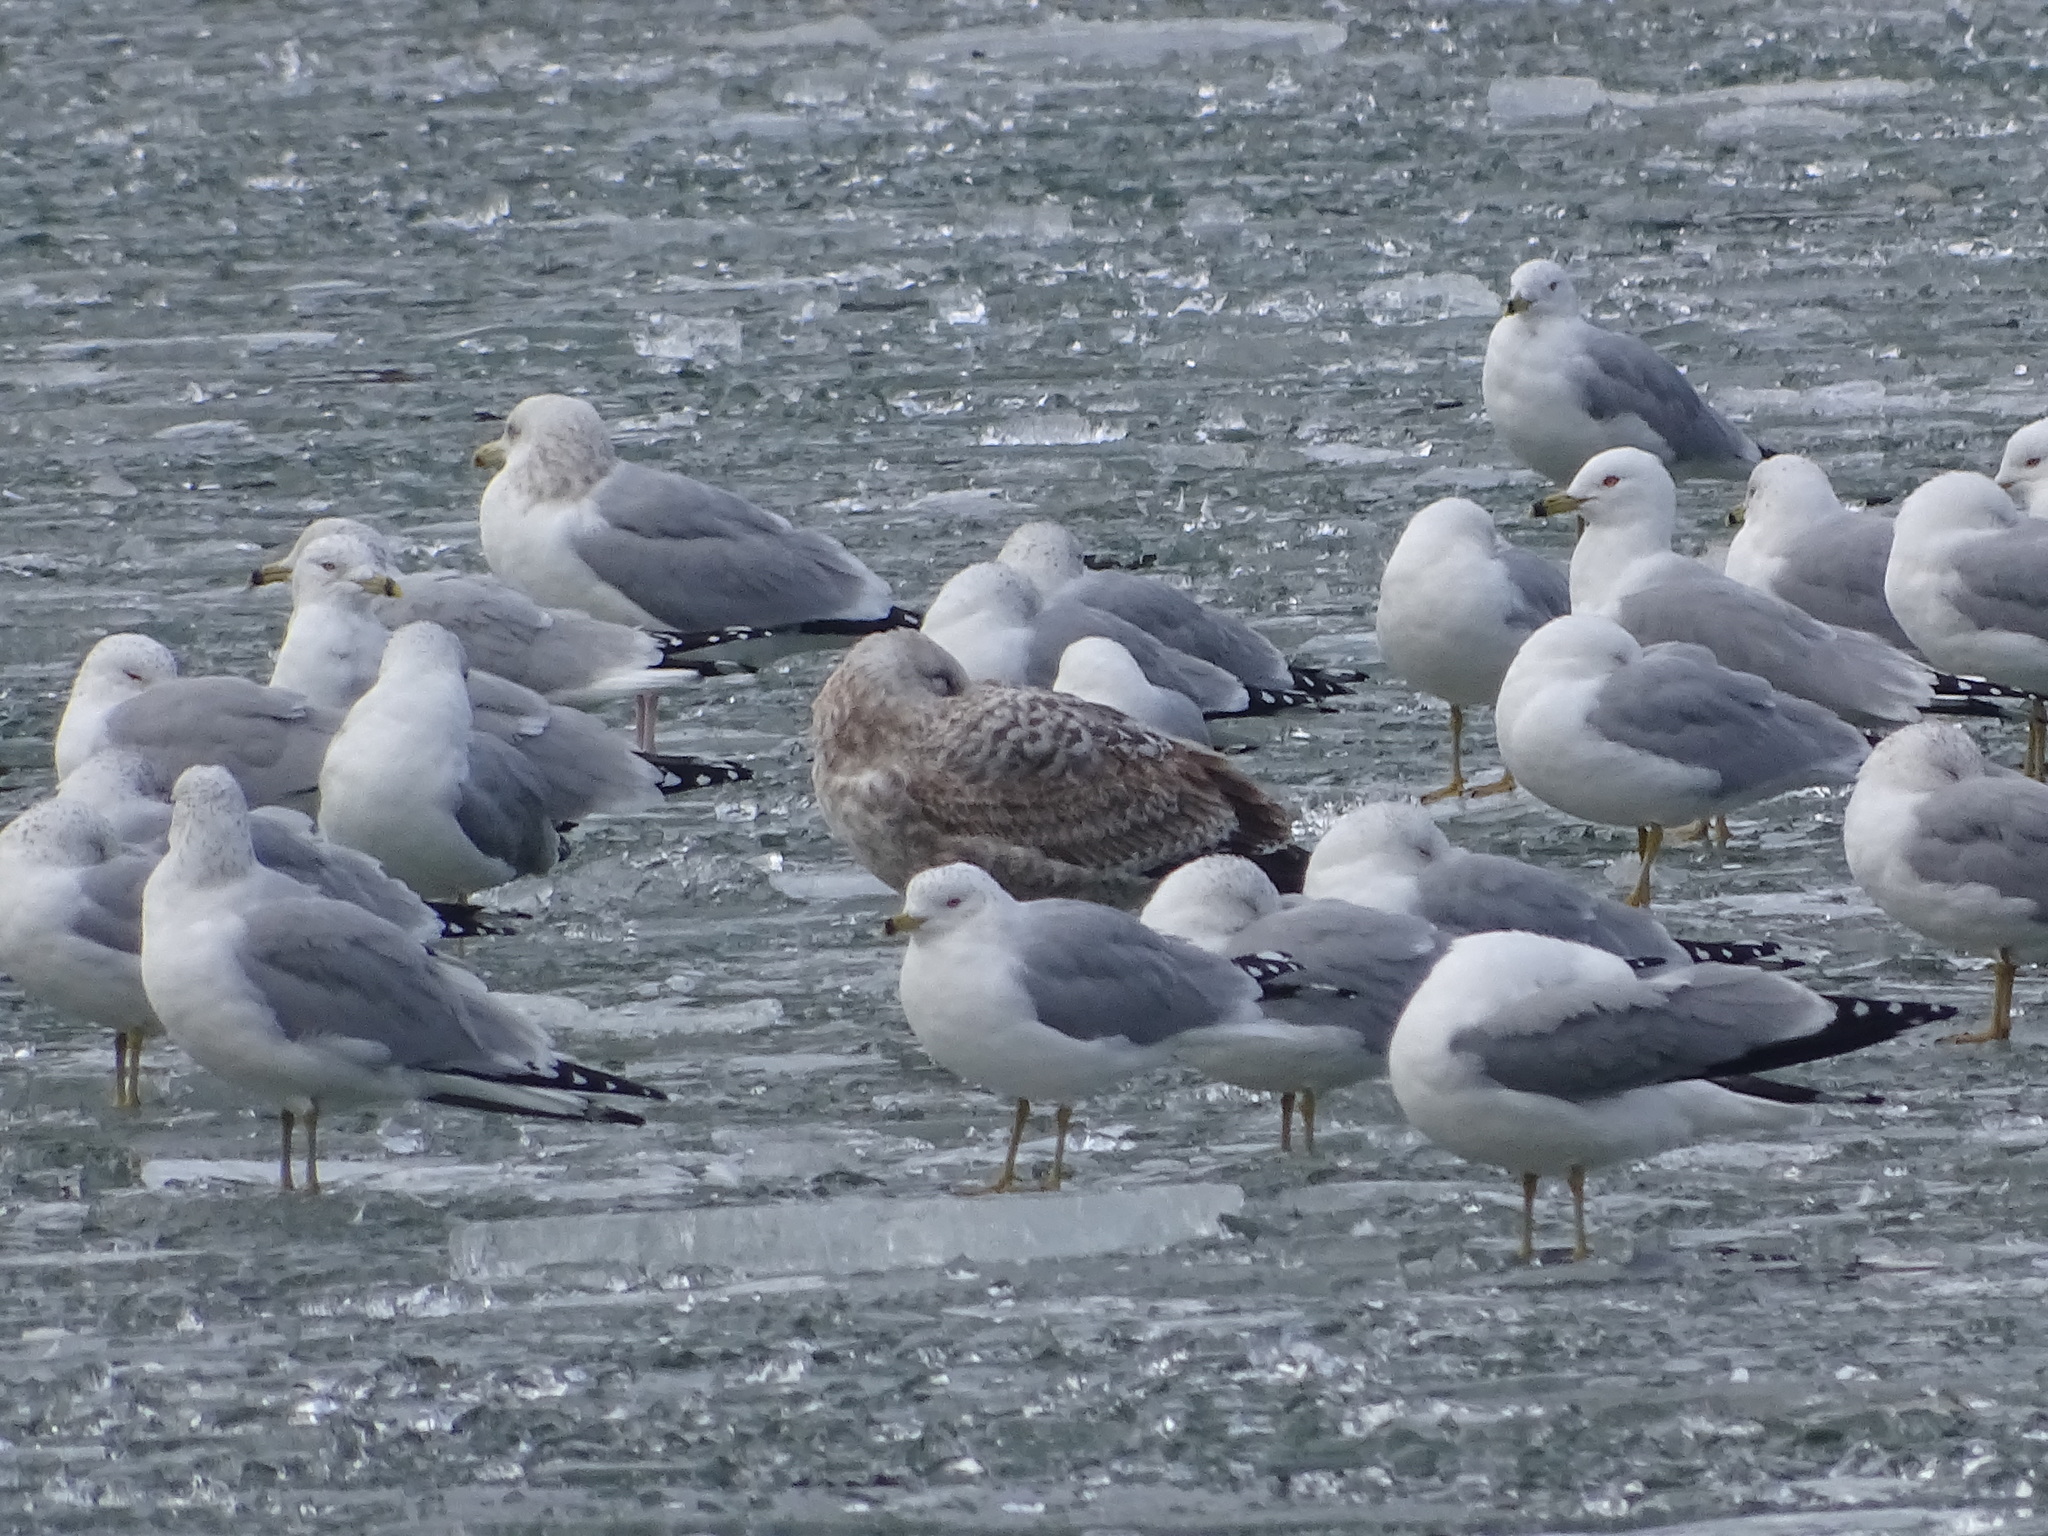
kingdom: Animalia
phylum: Chordata
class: Aves
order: Charadriiformes
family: Laridae
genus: Larus
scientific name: Larus argentatus
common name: Herring gull
